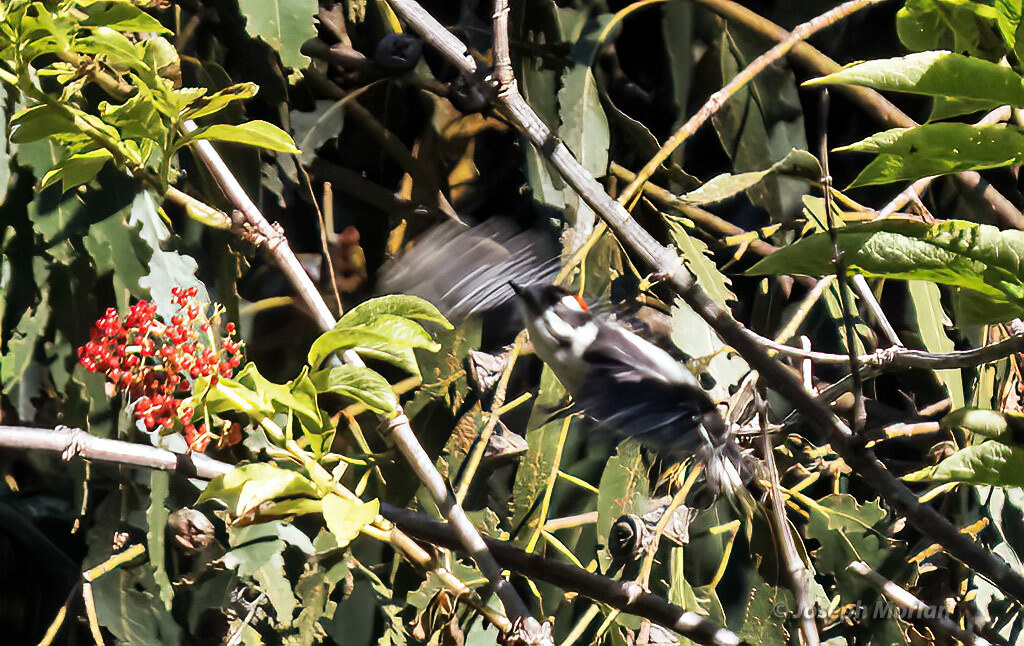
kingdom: Animalia
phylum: Chordata
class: Aves
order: Piciformes
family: Picidae
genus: Dryobates
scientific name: Dryobates pubescens
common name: Downy woodpecker
